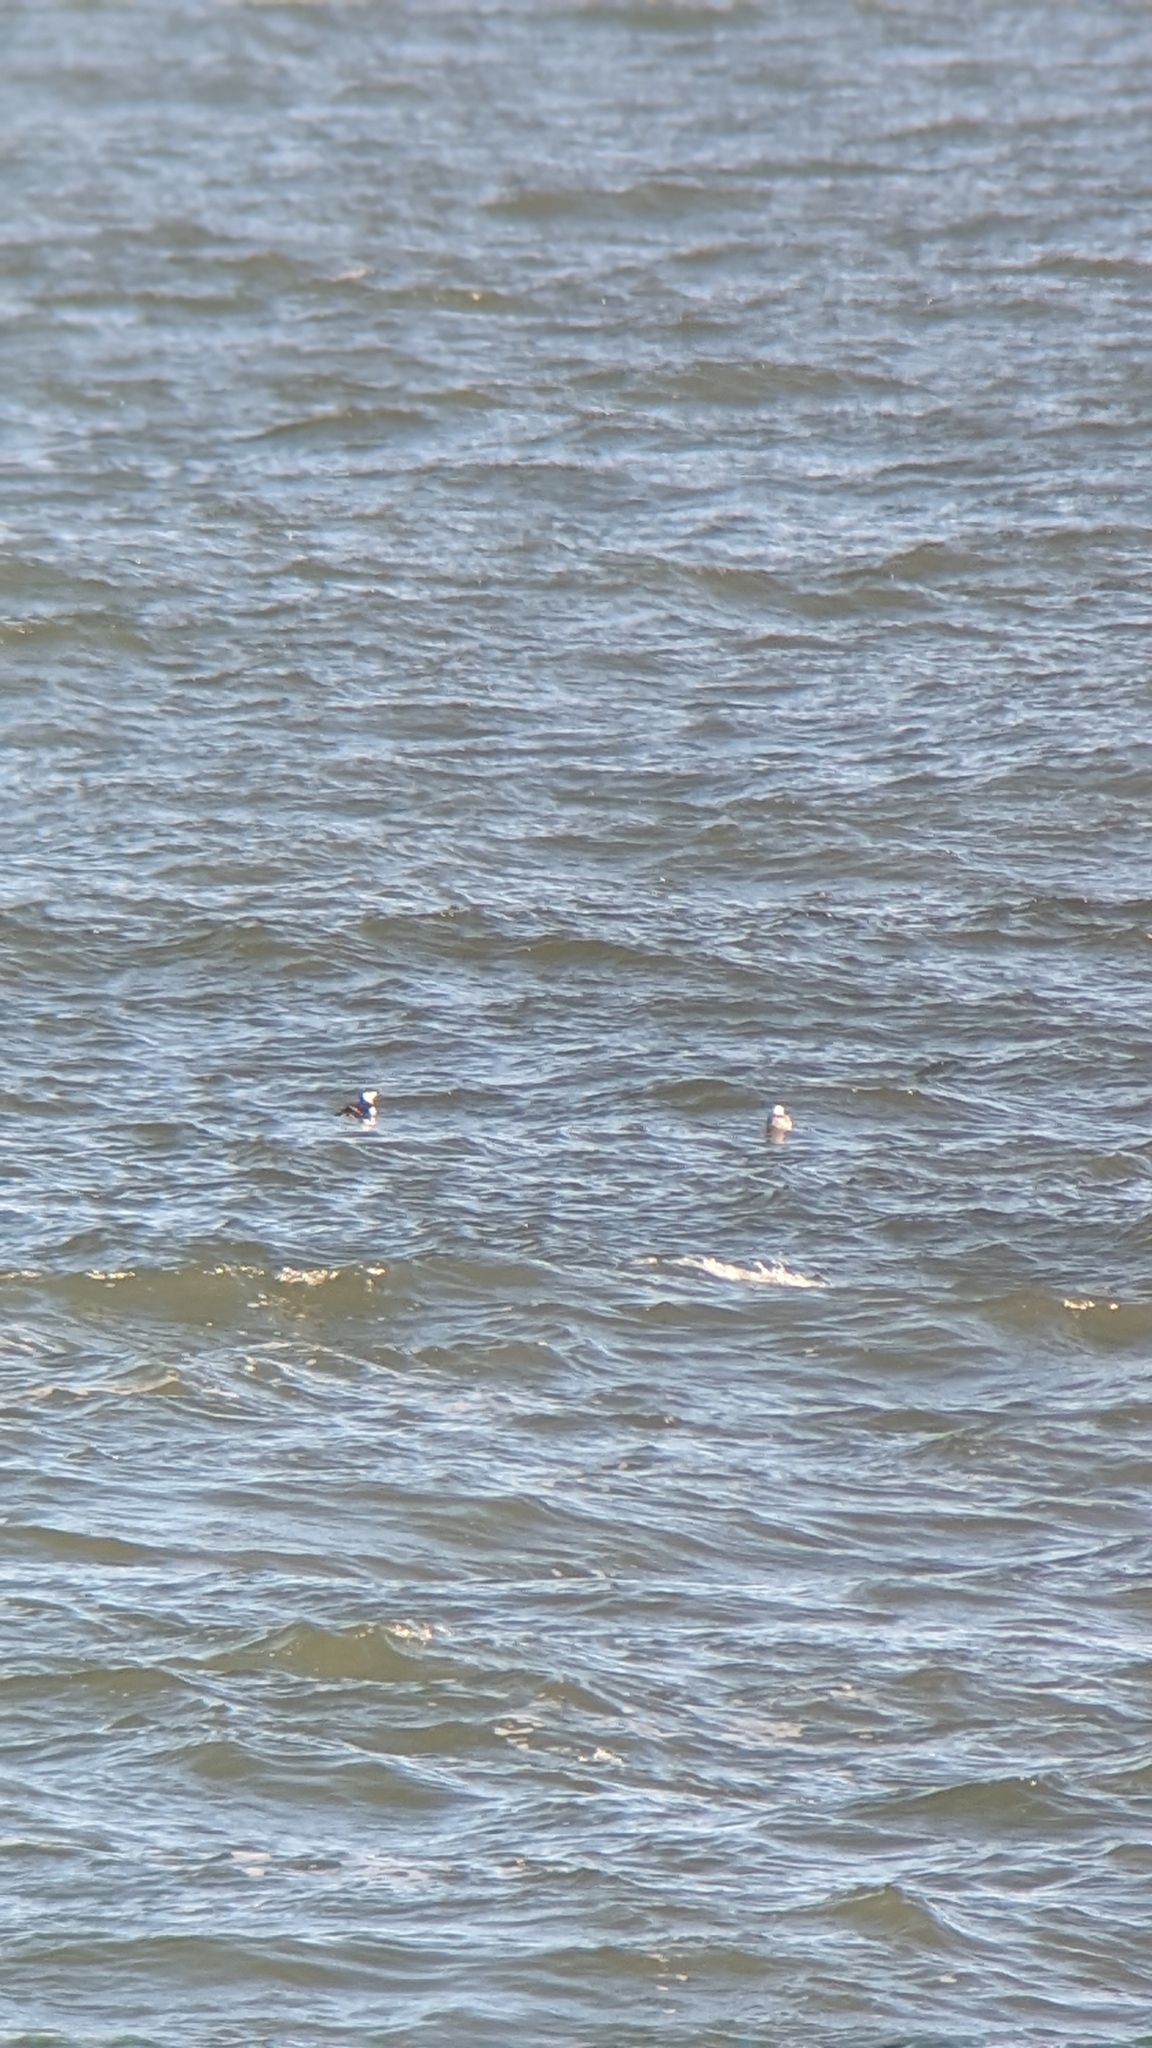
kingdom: Animalia
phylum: Chordata
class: Aves
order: Charadriiformes
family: Alcidae
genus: Alca
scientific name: Alca torda
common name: Razorbill
